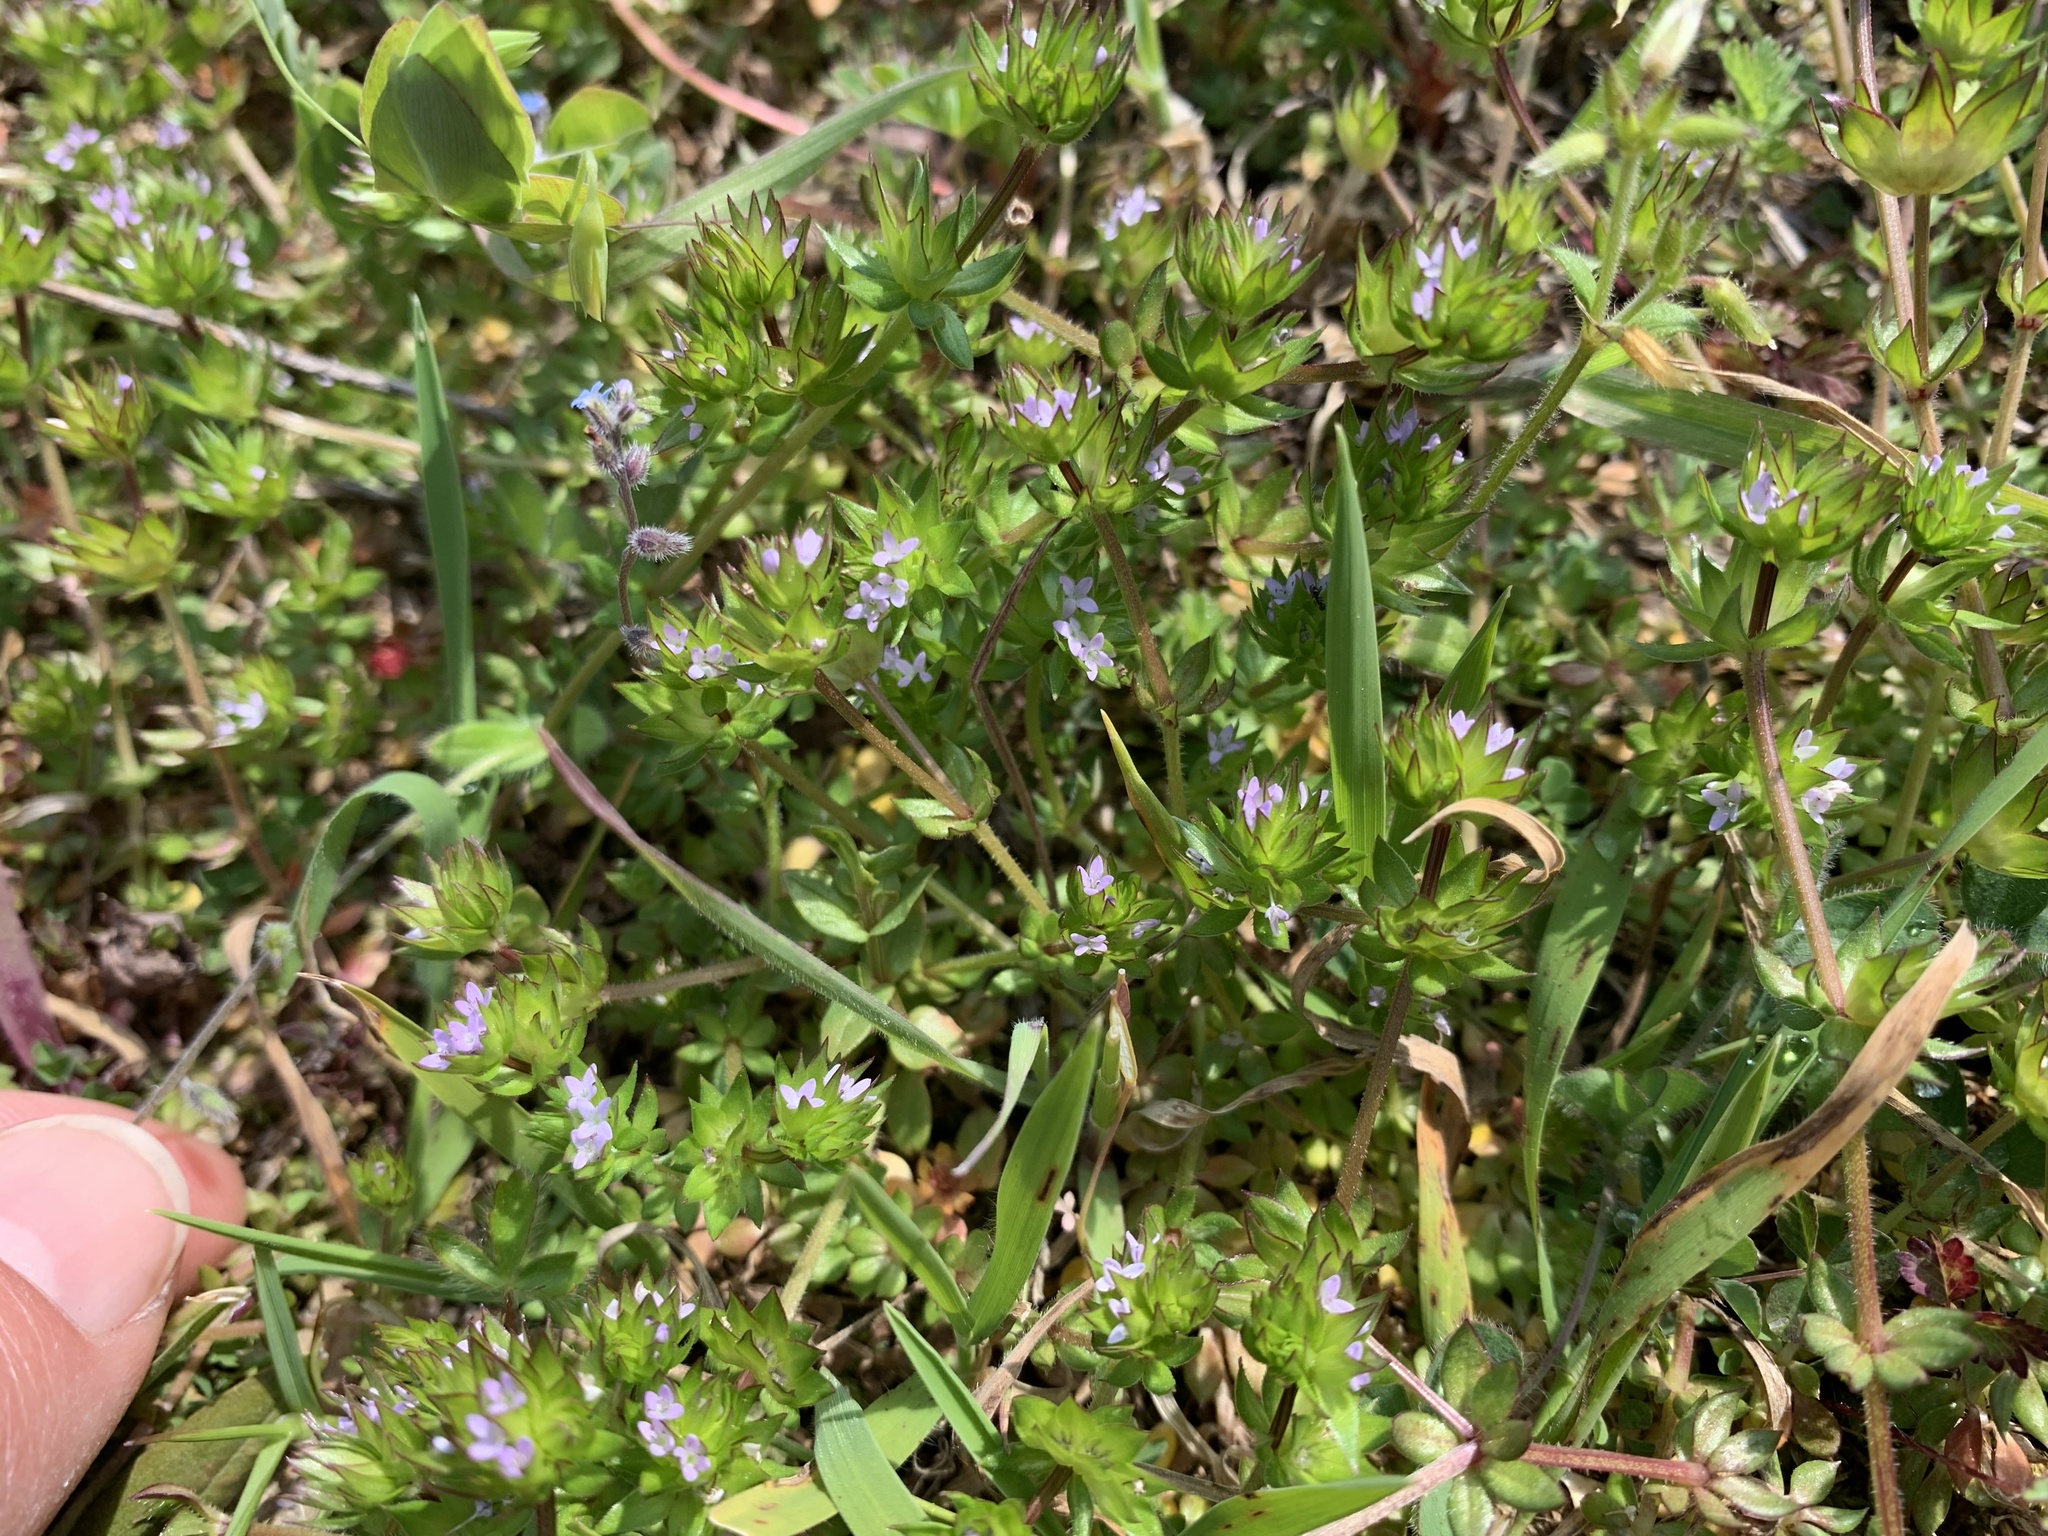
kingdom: Plantae
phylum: Tracheophyta
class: Magnoliopsida
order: Gentianales
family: Rubiaceae
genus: Sherardia
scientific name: Sherardia arvensis
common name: Field madder
